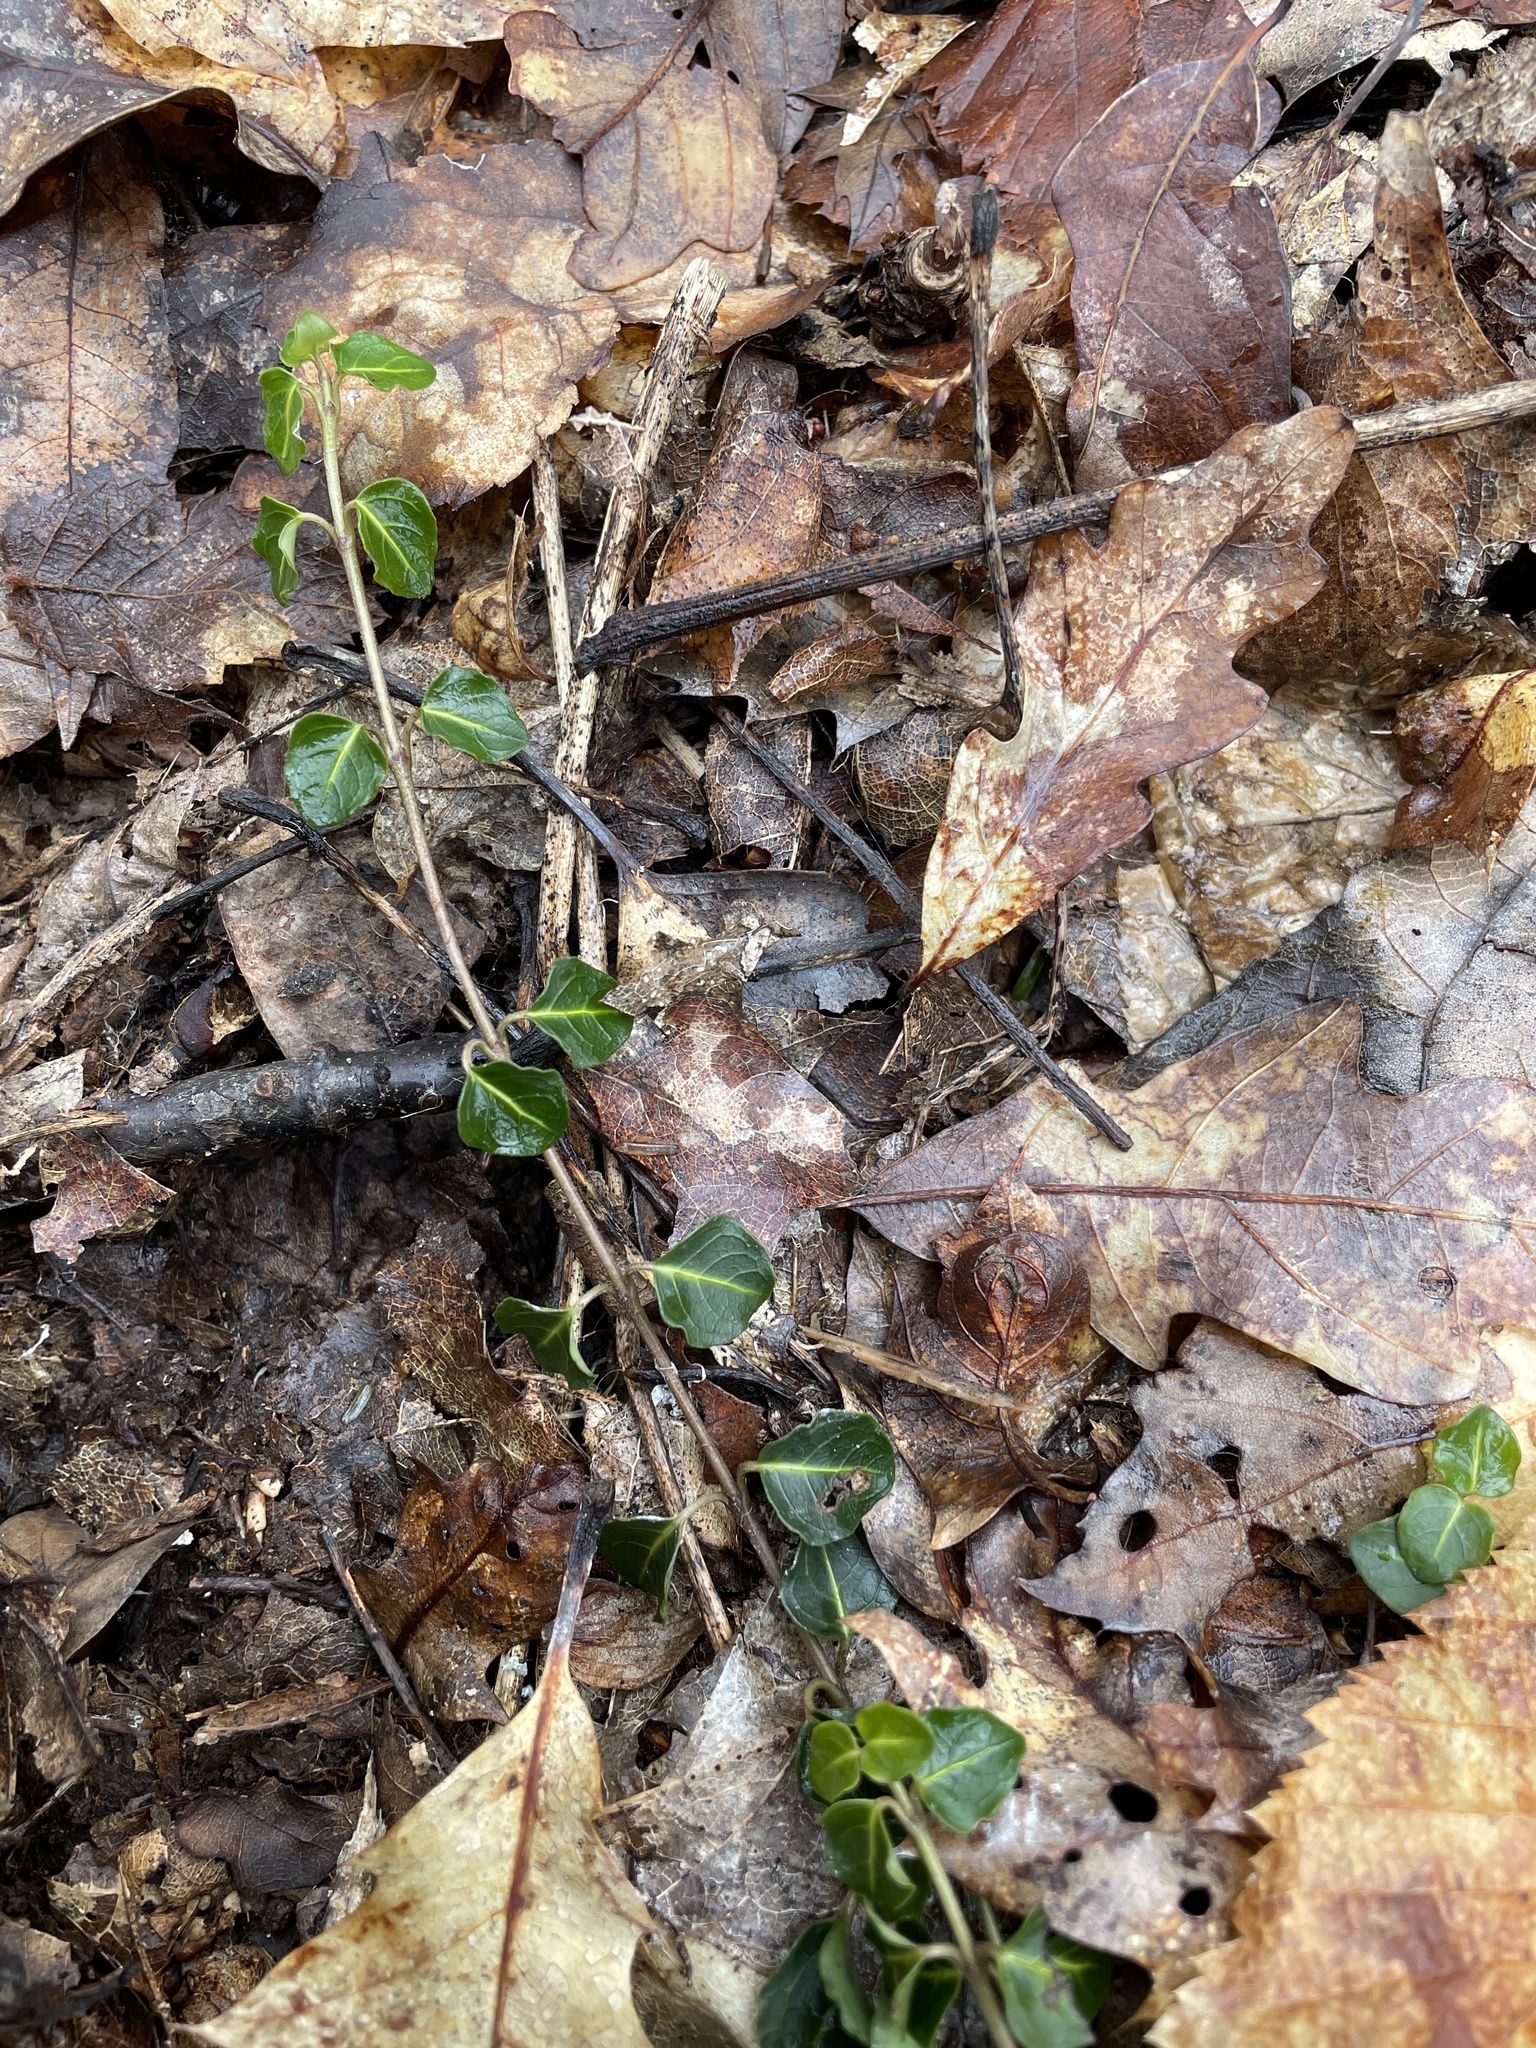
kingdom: Plantae
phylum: Tracheophyta
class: Magnoliopsida
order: Gentianales
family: Rubiaceae
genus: Mitchella
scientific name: Mitchella repens
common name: Partridge-berry
